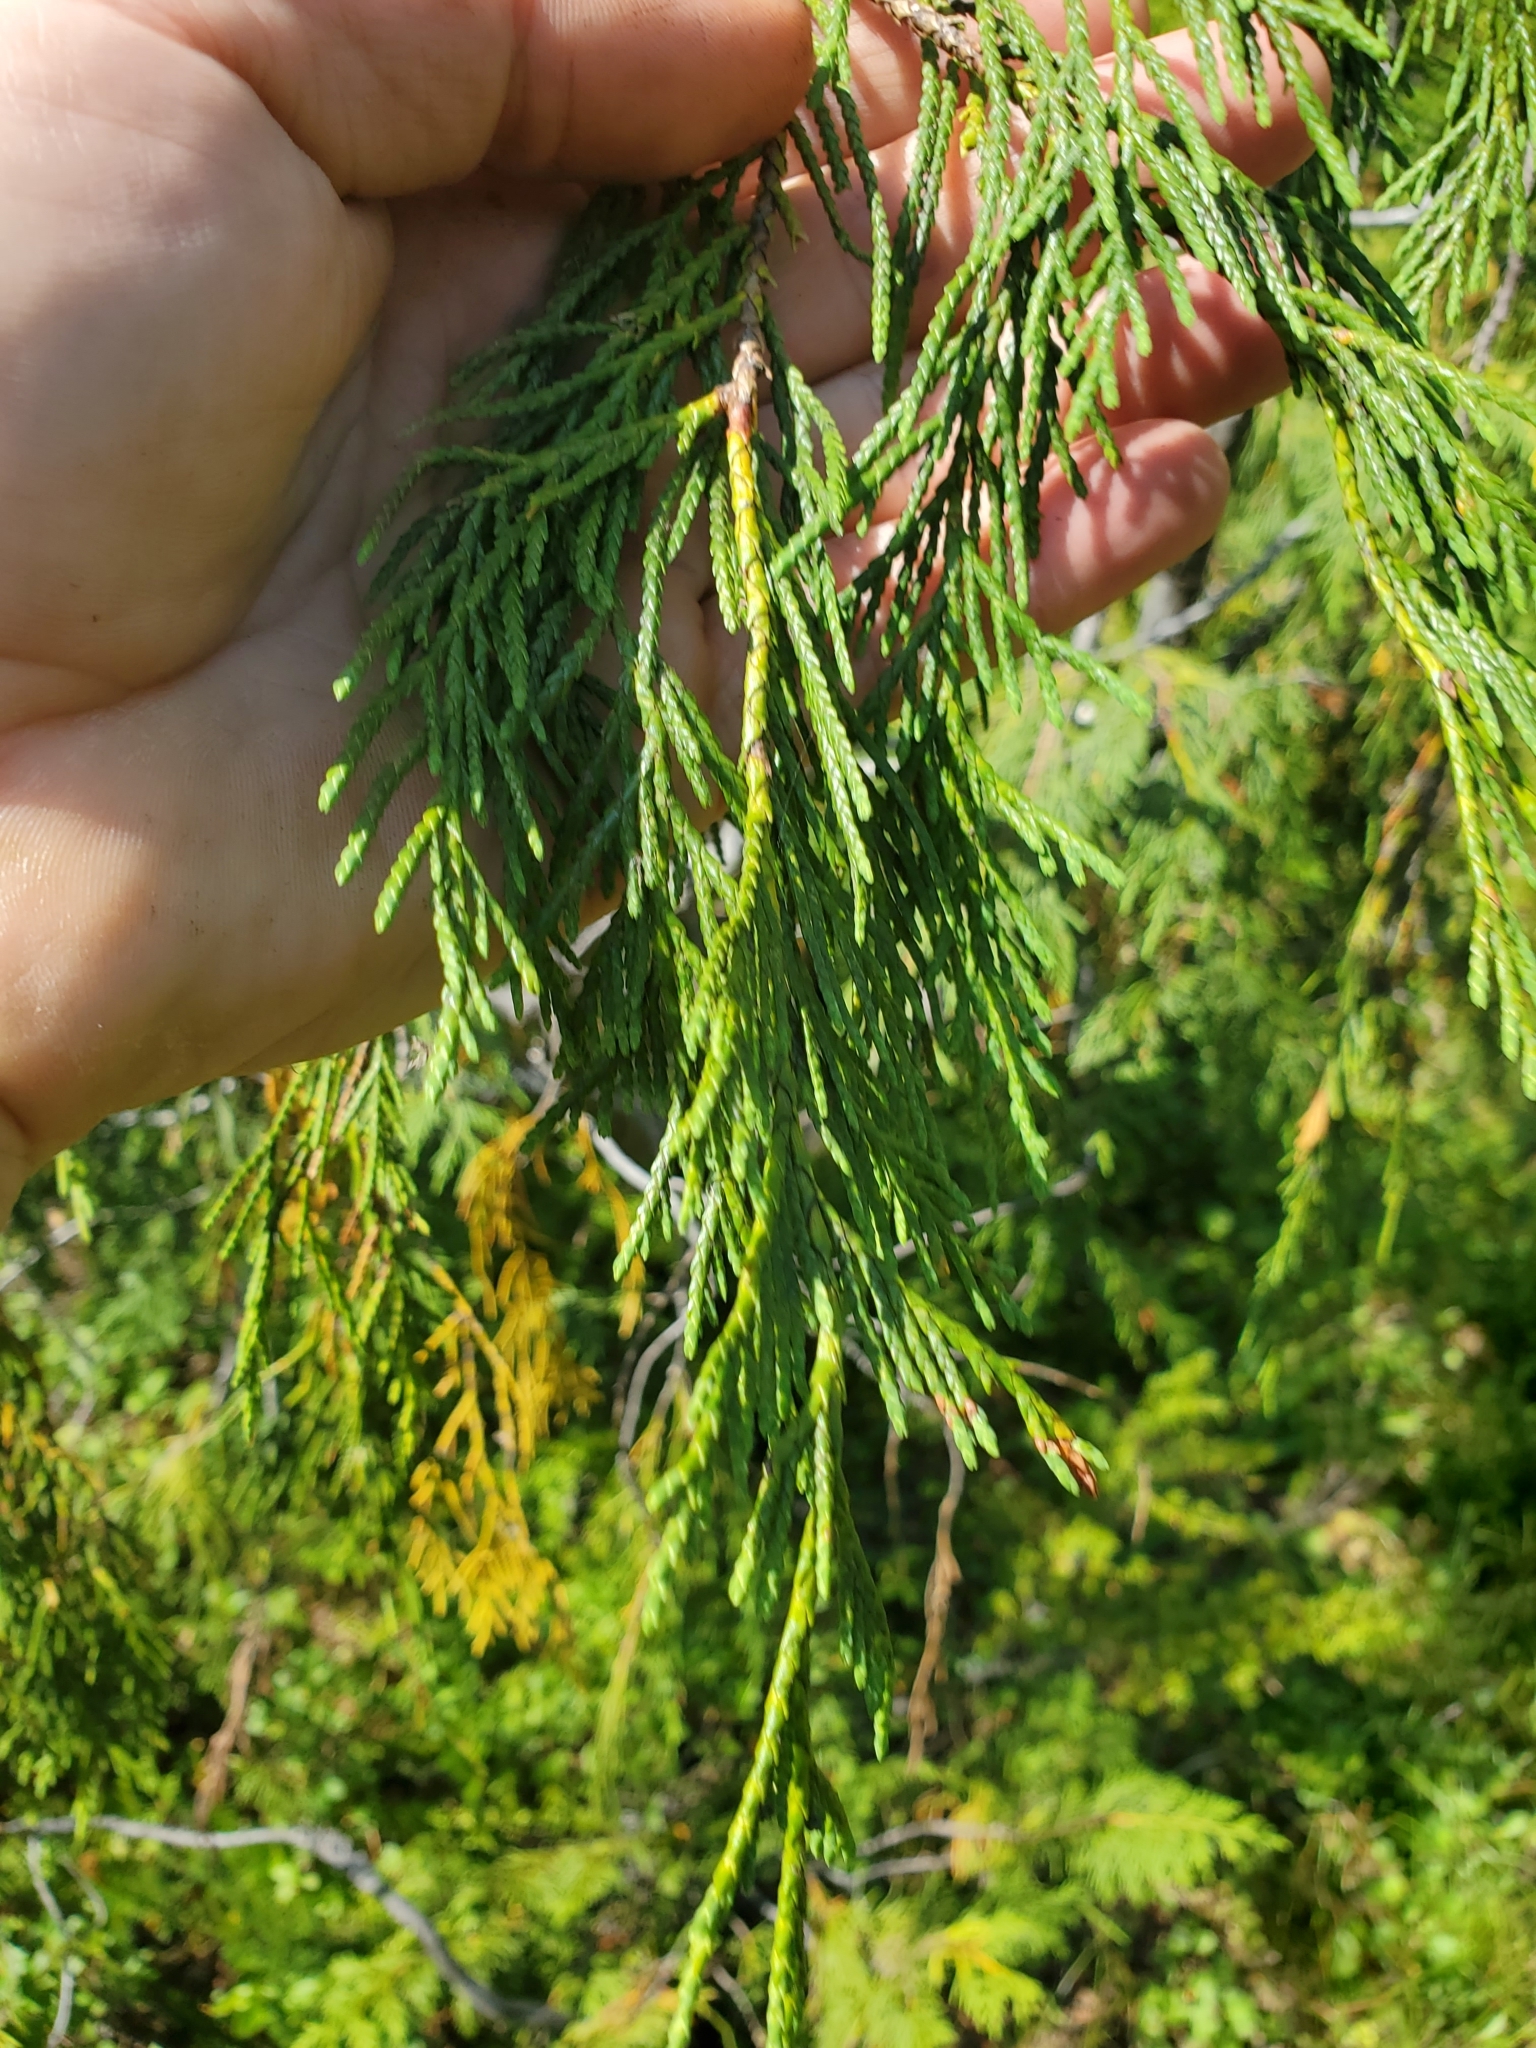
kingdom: Plantae
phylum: Tracheophyta
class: Pinopsida
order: Pinales
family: Cupressaceae
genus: Xanthocyparis
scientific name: Xanthocyparis nootkatensis
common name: Nootka cypress
